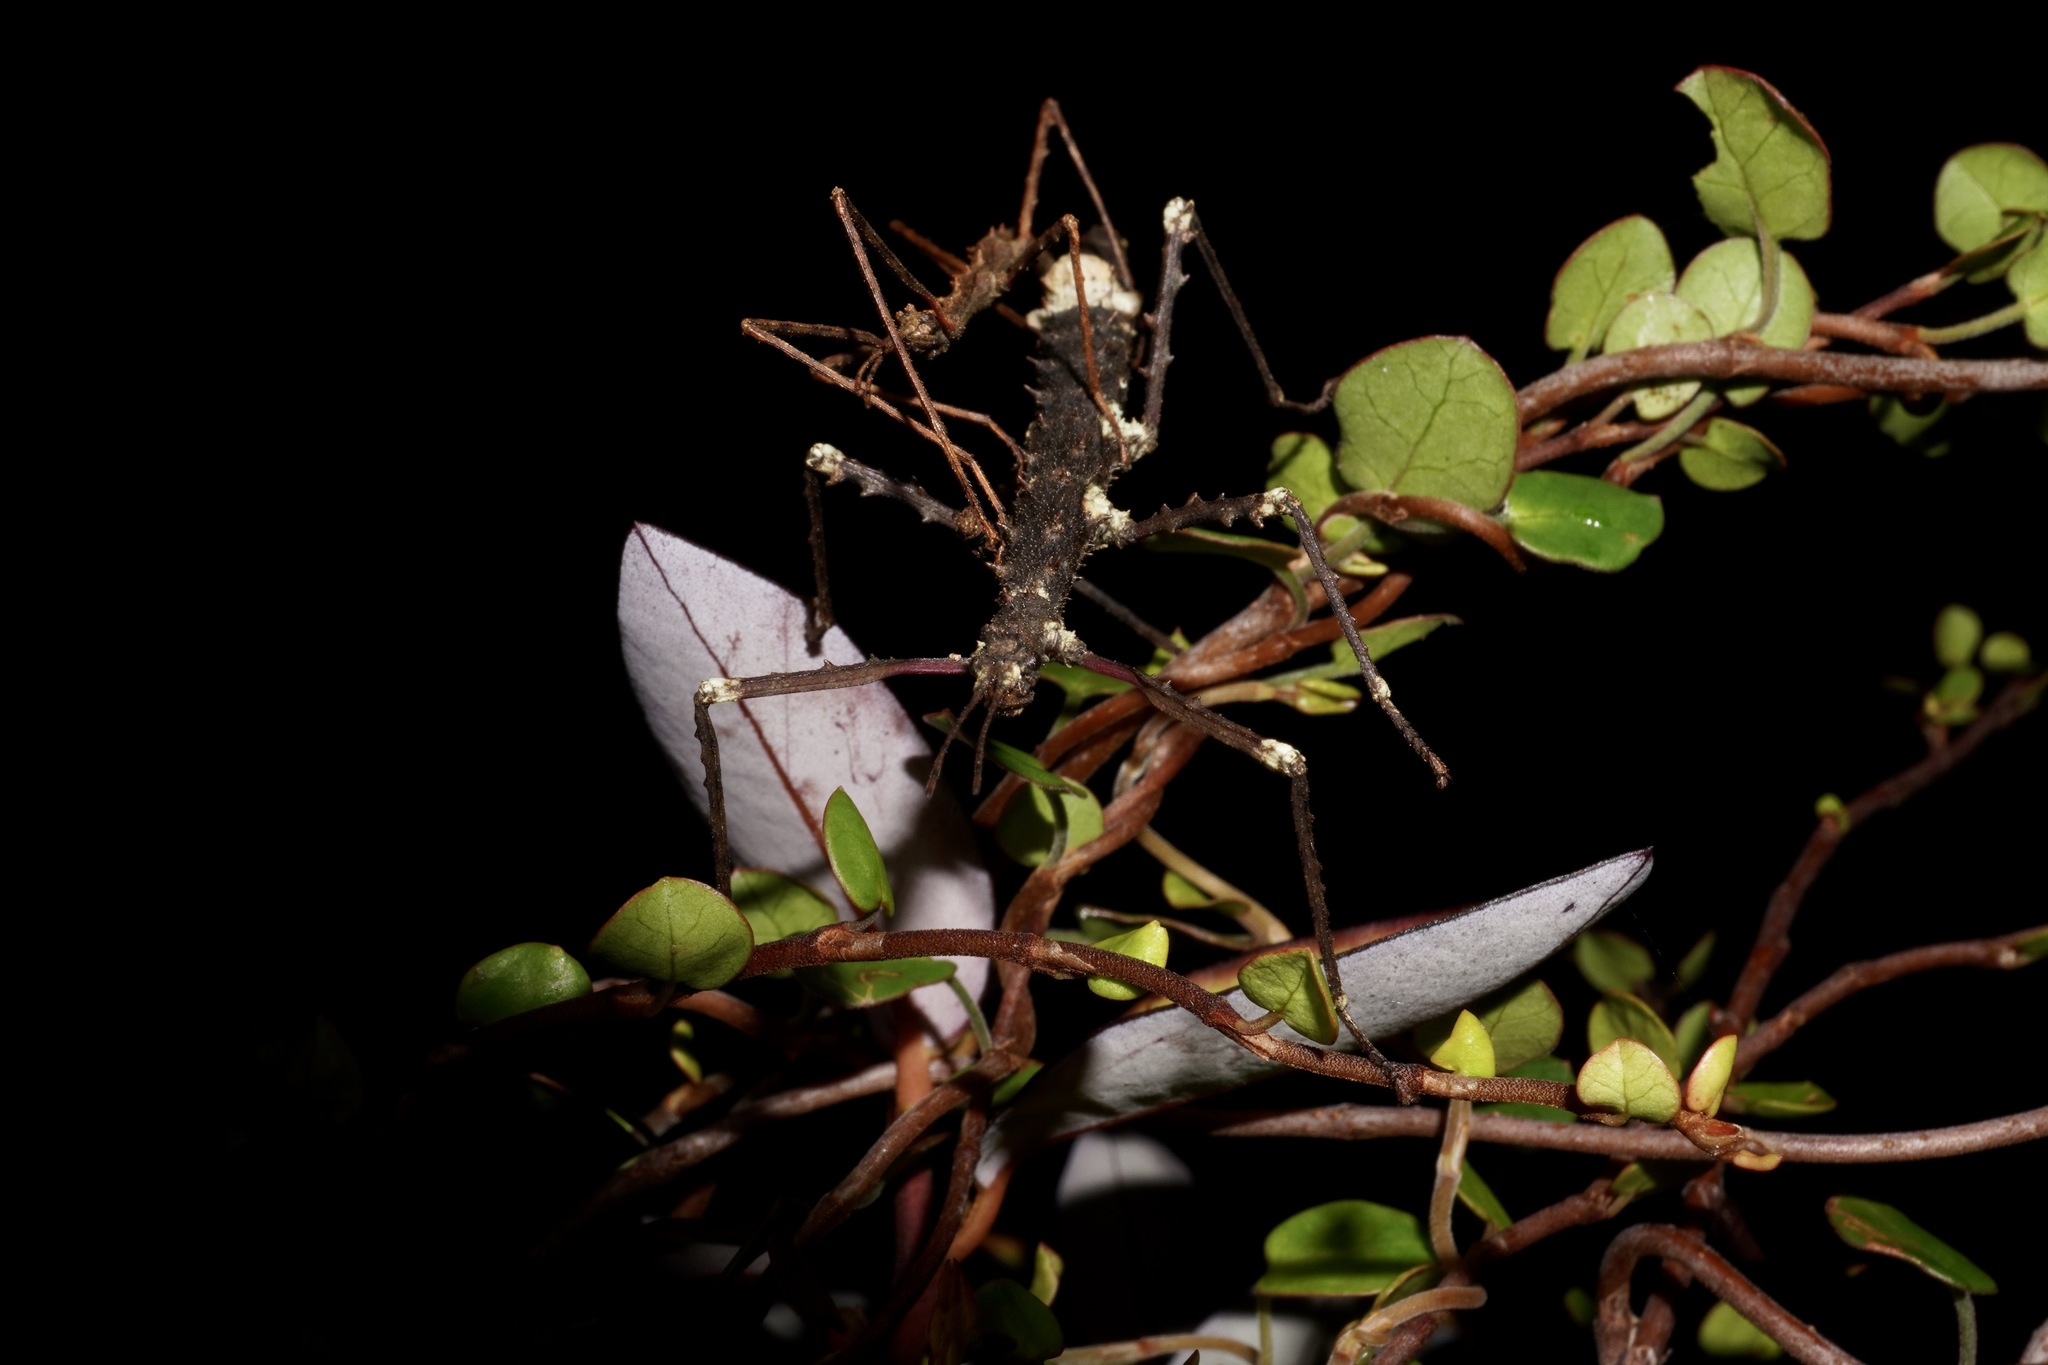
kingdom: Animalia
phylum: Arthropoda
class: Insecta
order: Phasmida
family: Phasmatidae
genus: Micrarchus
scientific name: Micrarchus hystriculeus
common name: The lesser spiny stick insect
